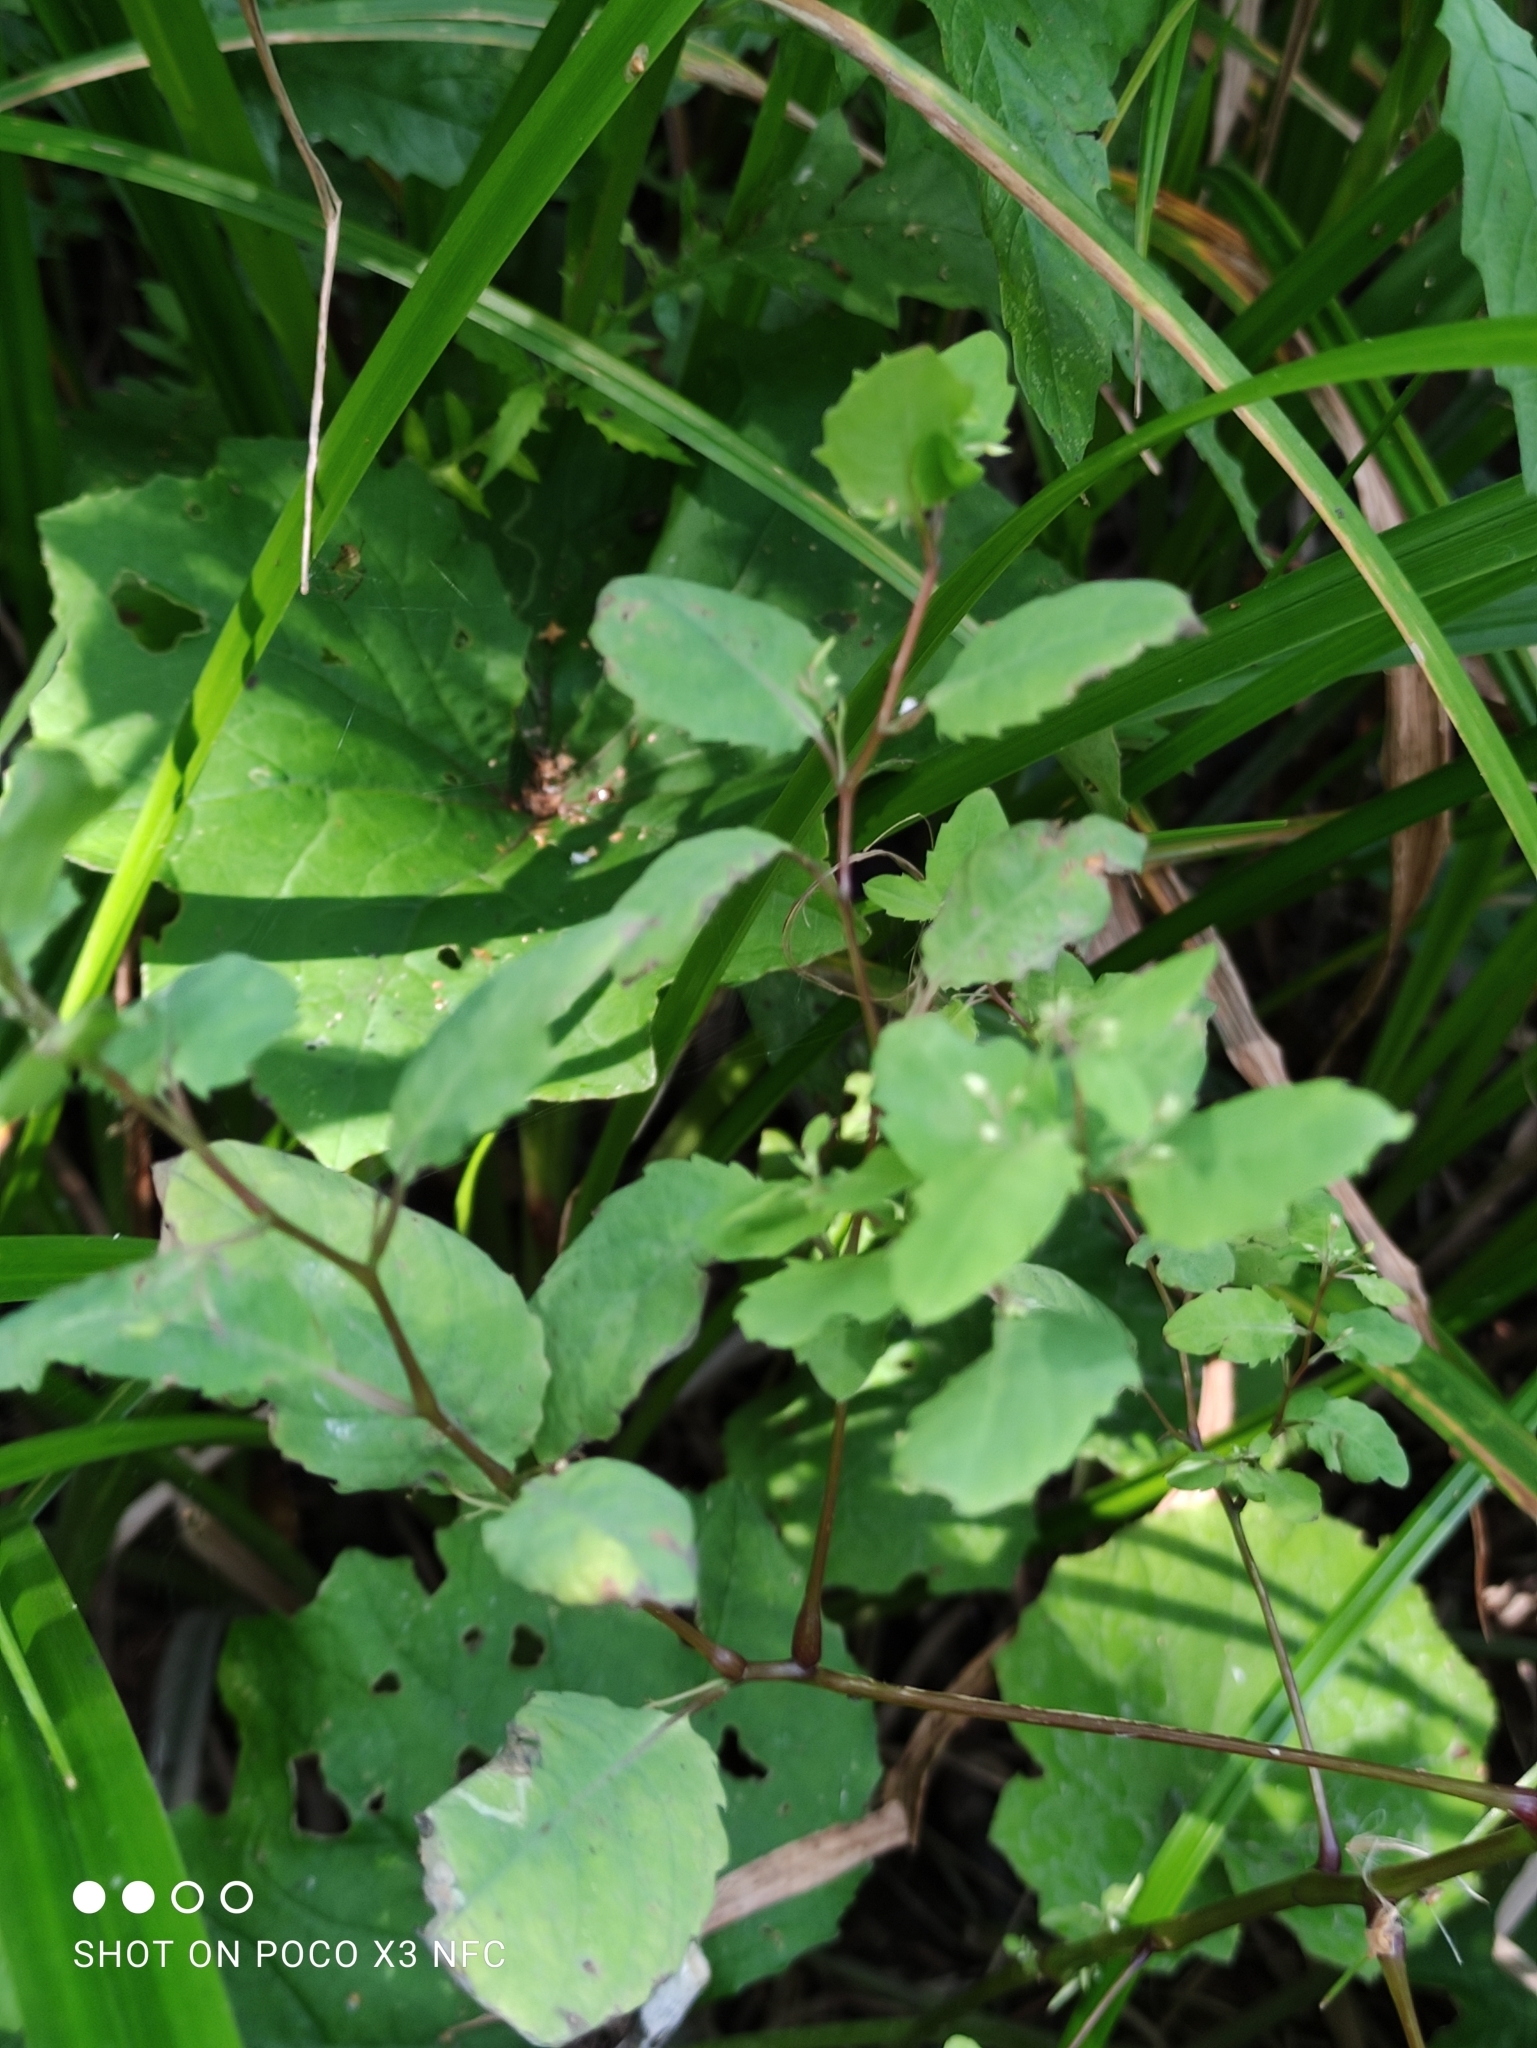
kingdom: Plantae
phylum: Tracheophyta
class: Magnoliopsida
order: Ericales
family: Balsaminaceae
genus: Impatiens
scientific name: Impatiens noli-tangere
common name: Touch-me-not balsam
